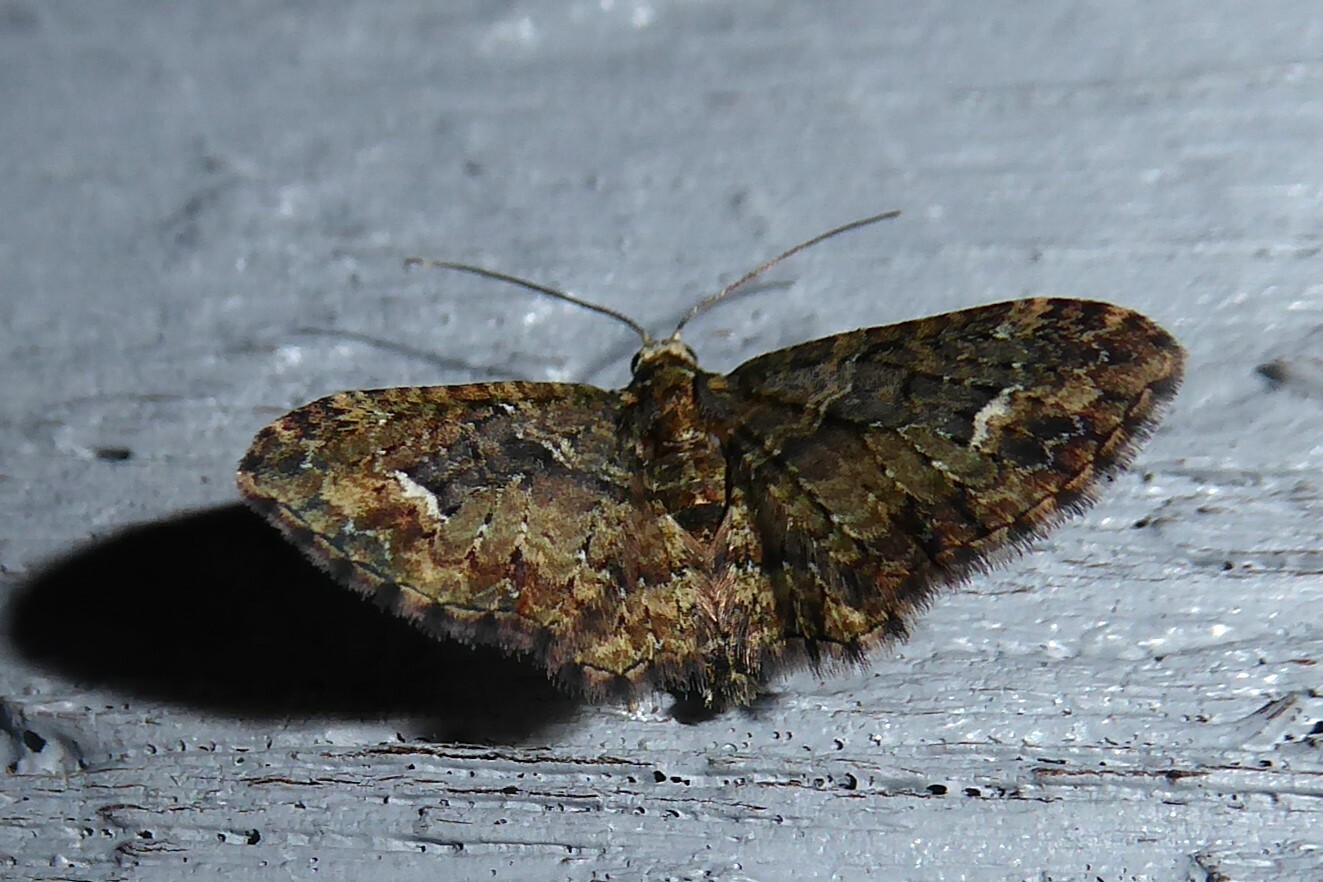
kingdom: Animalia
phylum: Arthropoda
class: Insecta
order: Lepidoptera
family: Geometridae
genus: Pasiphilodes
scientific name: Pasiphilodes testulata
